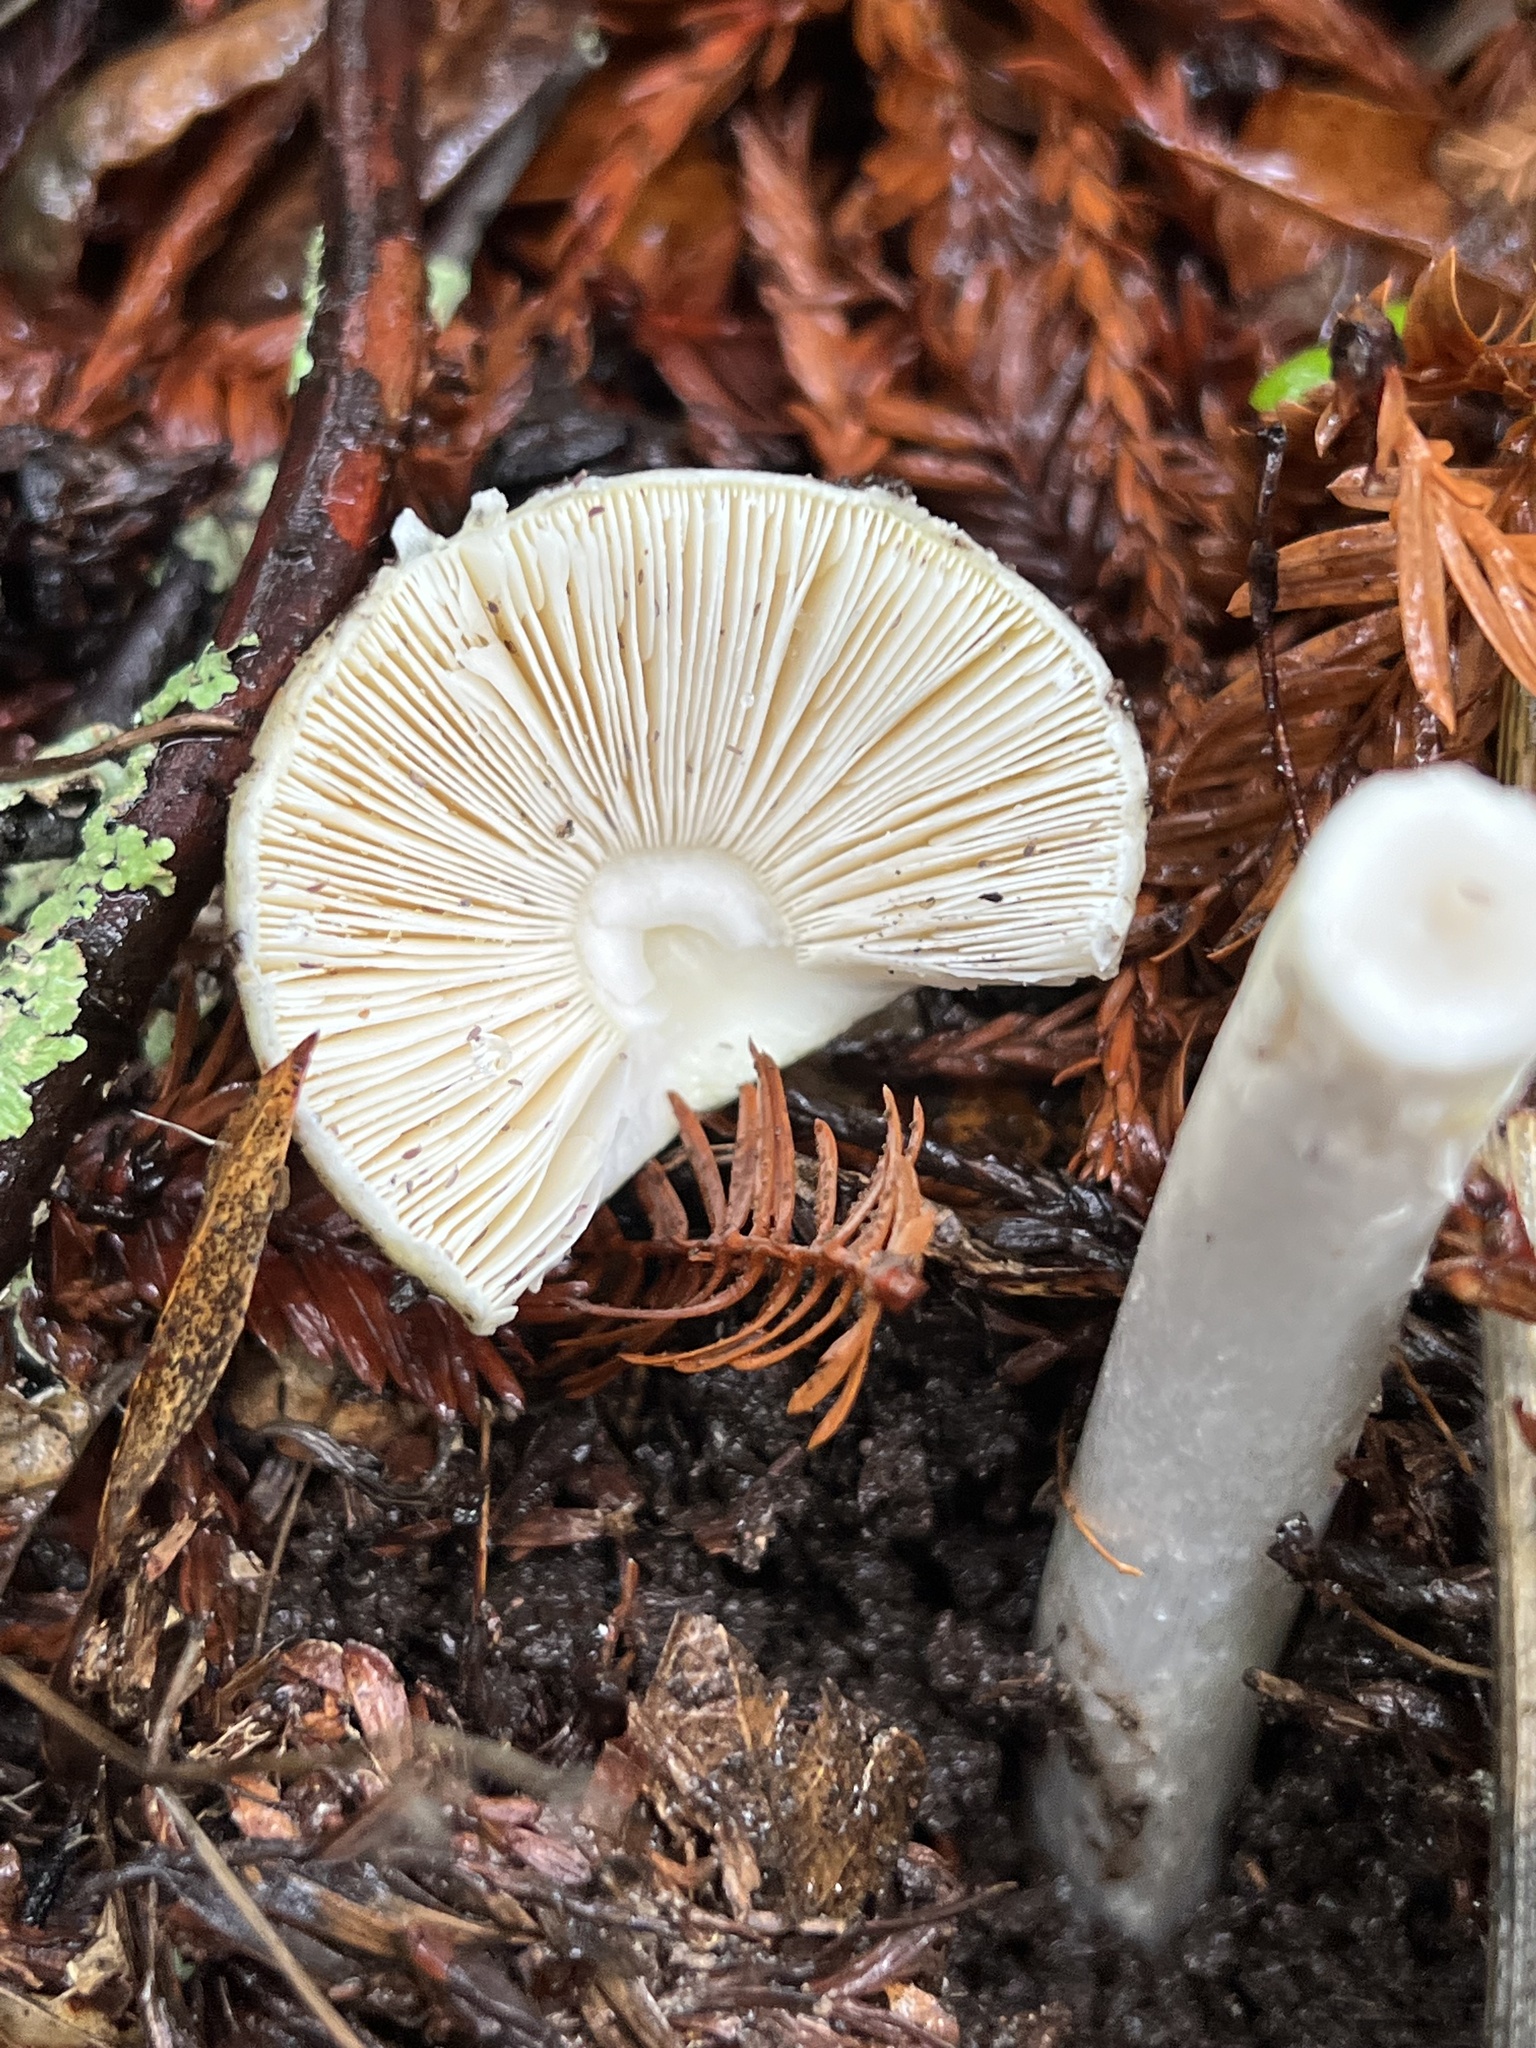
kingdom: Fungi
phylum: Basidiomycota
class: Agaricomycetes
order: Agaricales
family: Amanitaceae
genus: Amanita
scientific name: Amanita phalloides
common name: Death cap
